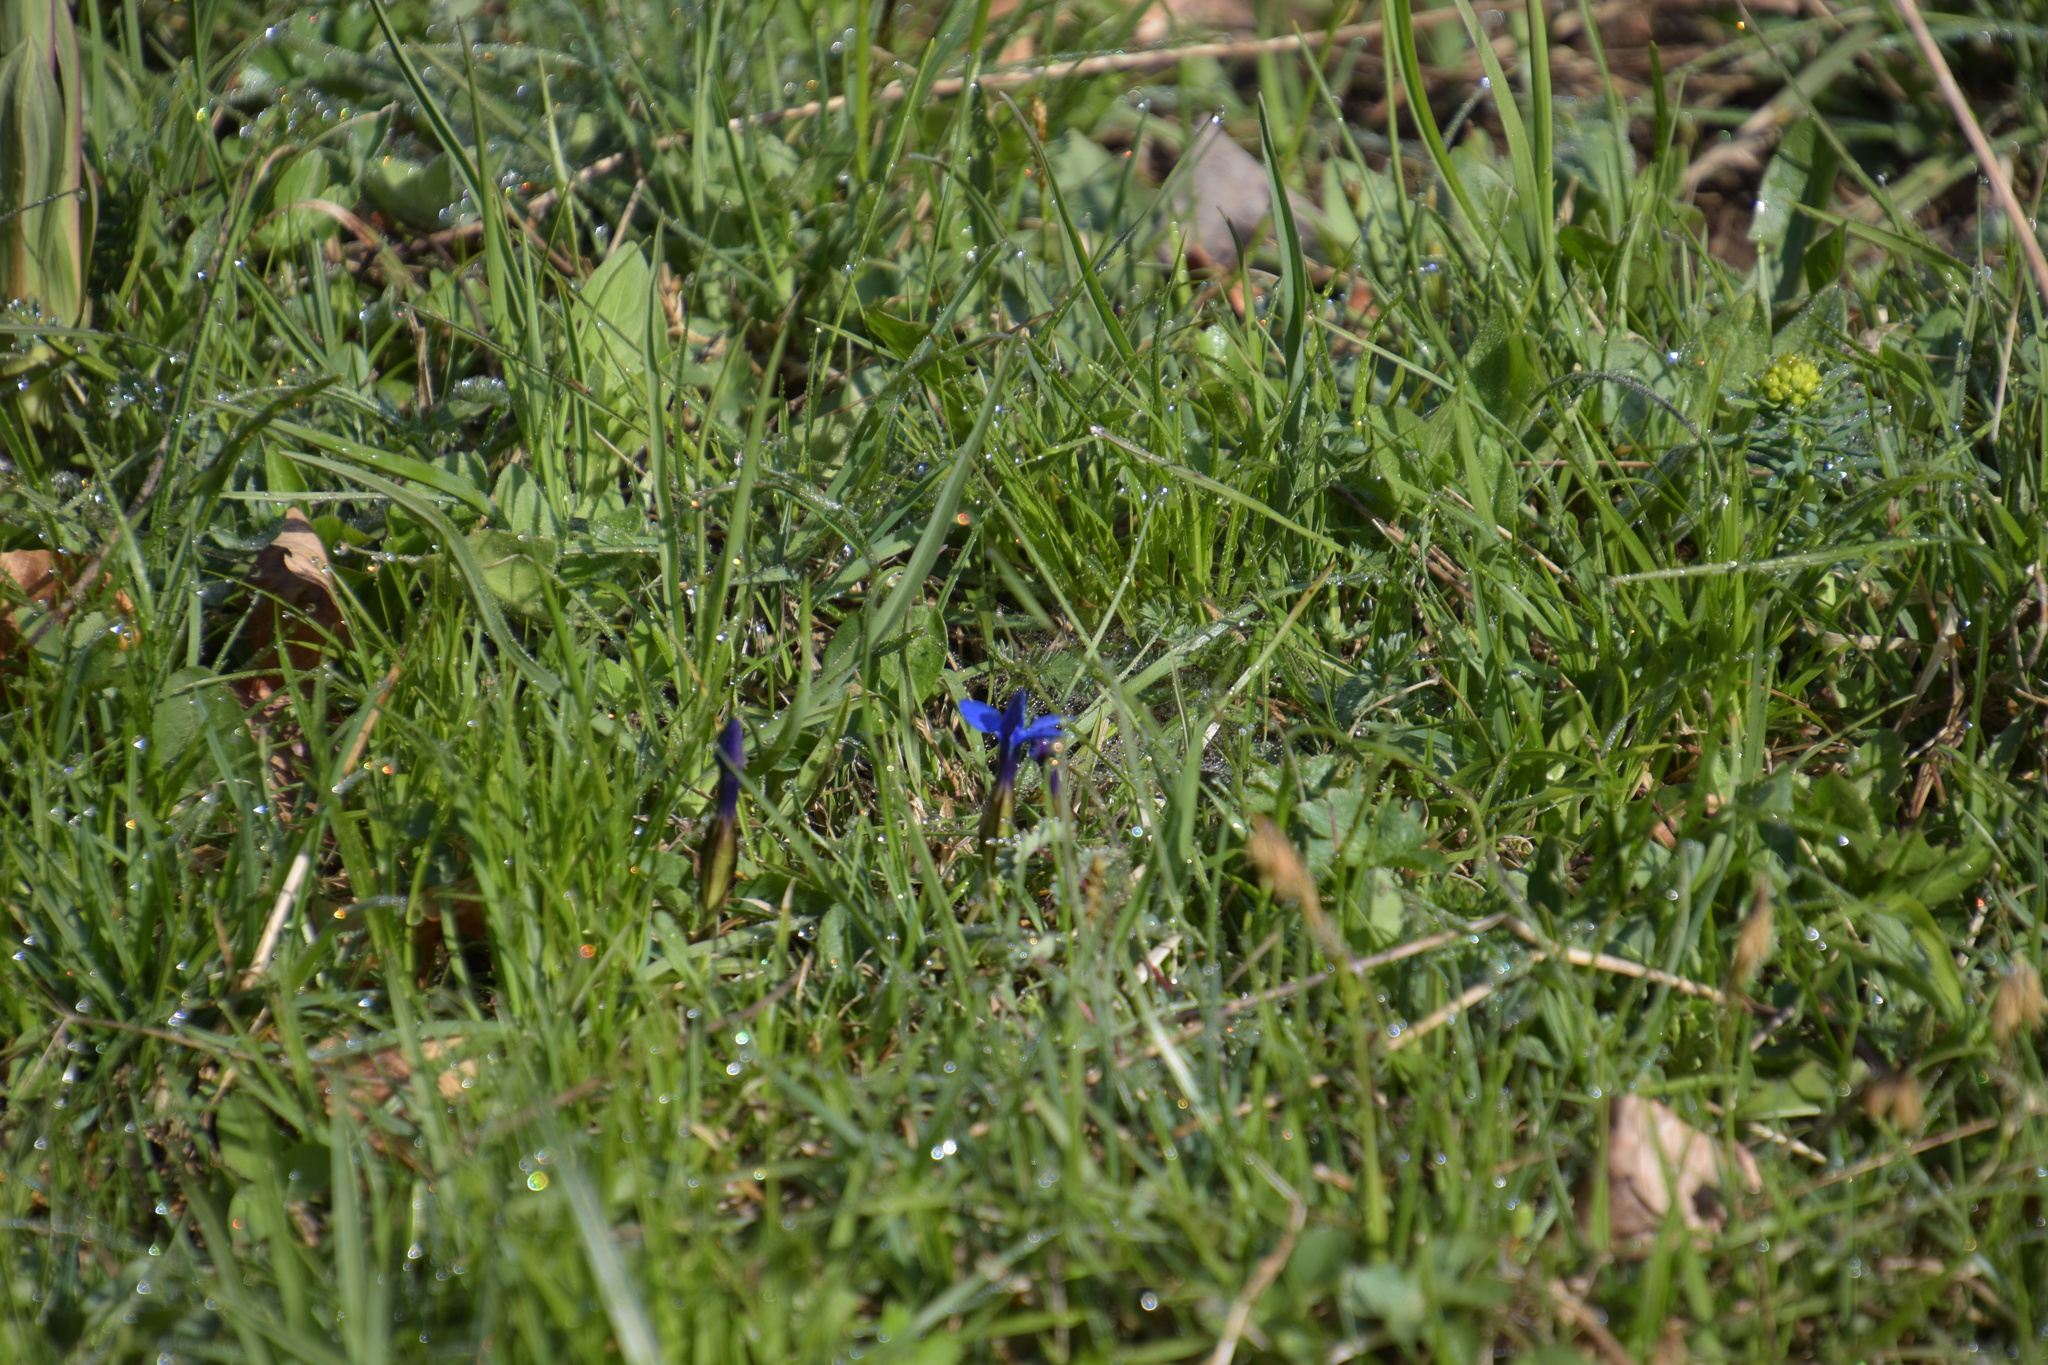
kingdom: Plantae
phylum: Tracheophyta
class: Magnoliopsida
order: Gentianales
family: Gentianaceae
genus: Gentiana
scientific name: Gentiana verna
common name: Spring gentian
